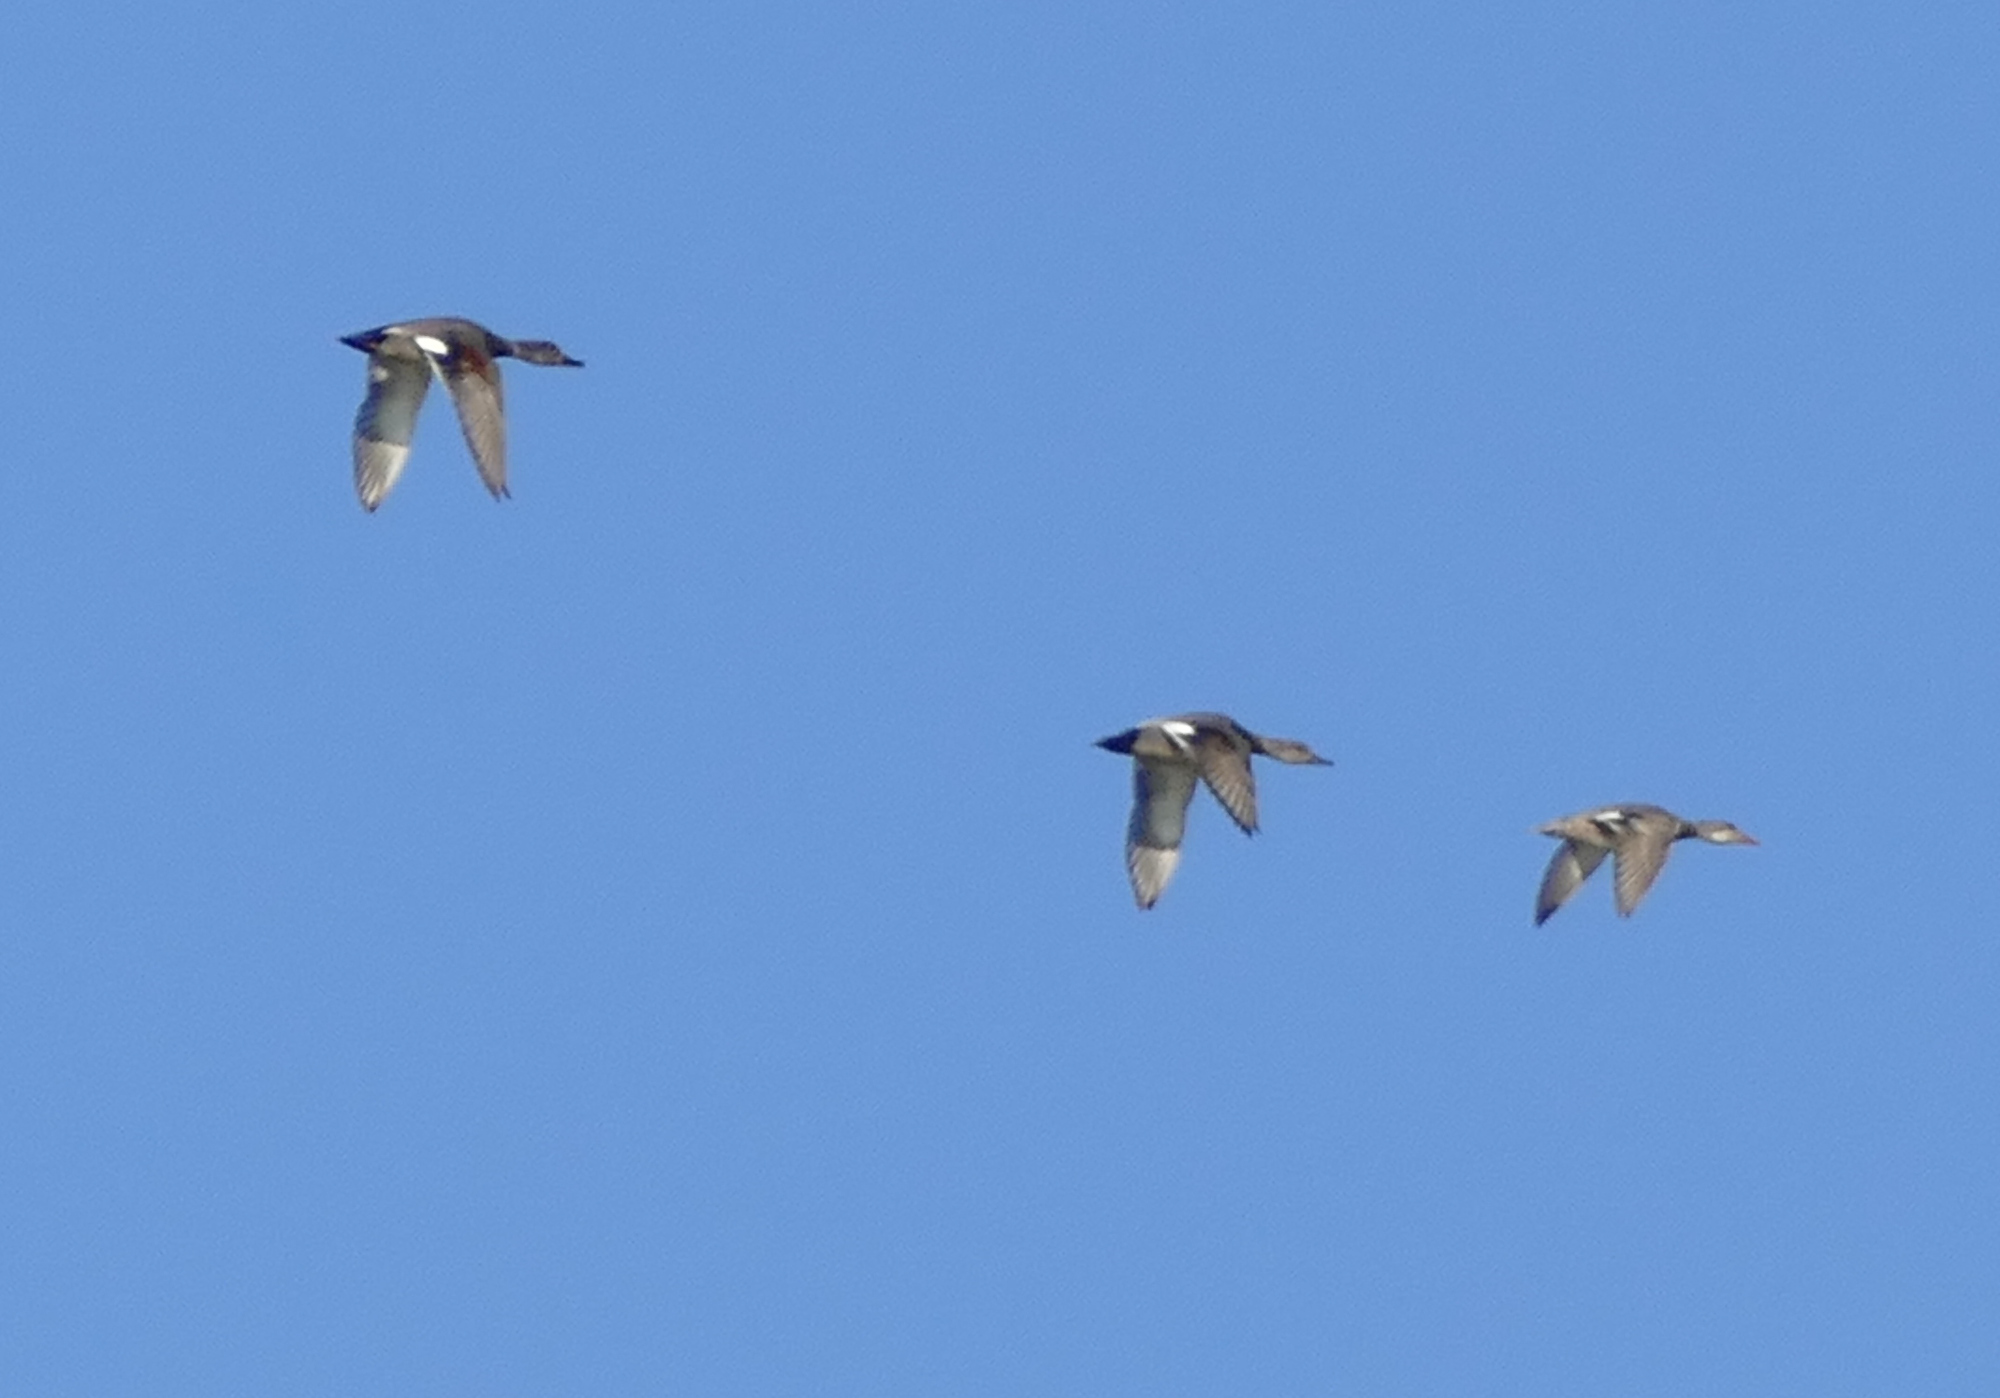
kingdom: Animalia
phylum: Chordata
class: Aves
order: Anseriformes
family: Anatidae
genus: Mareca
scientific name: Mareca strepera
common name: Gadwall
